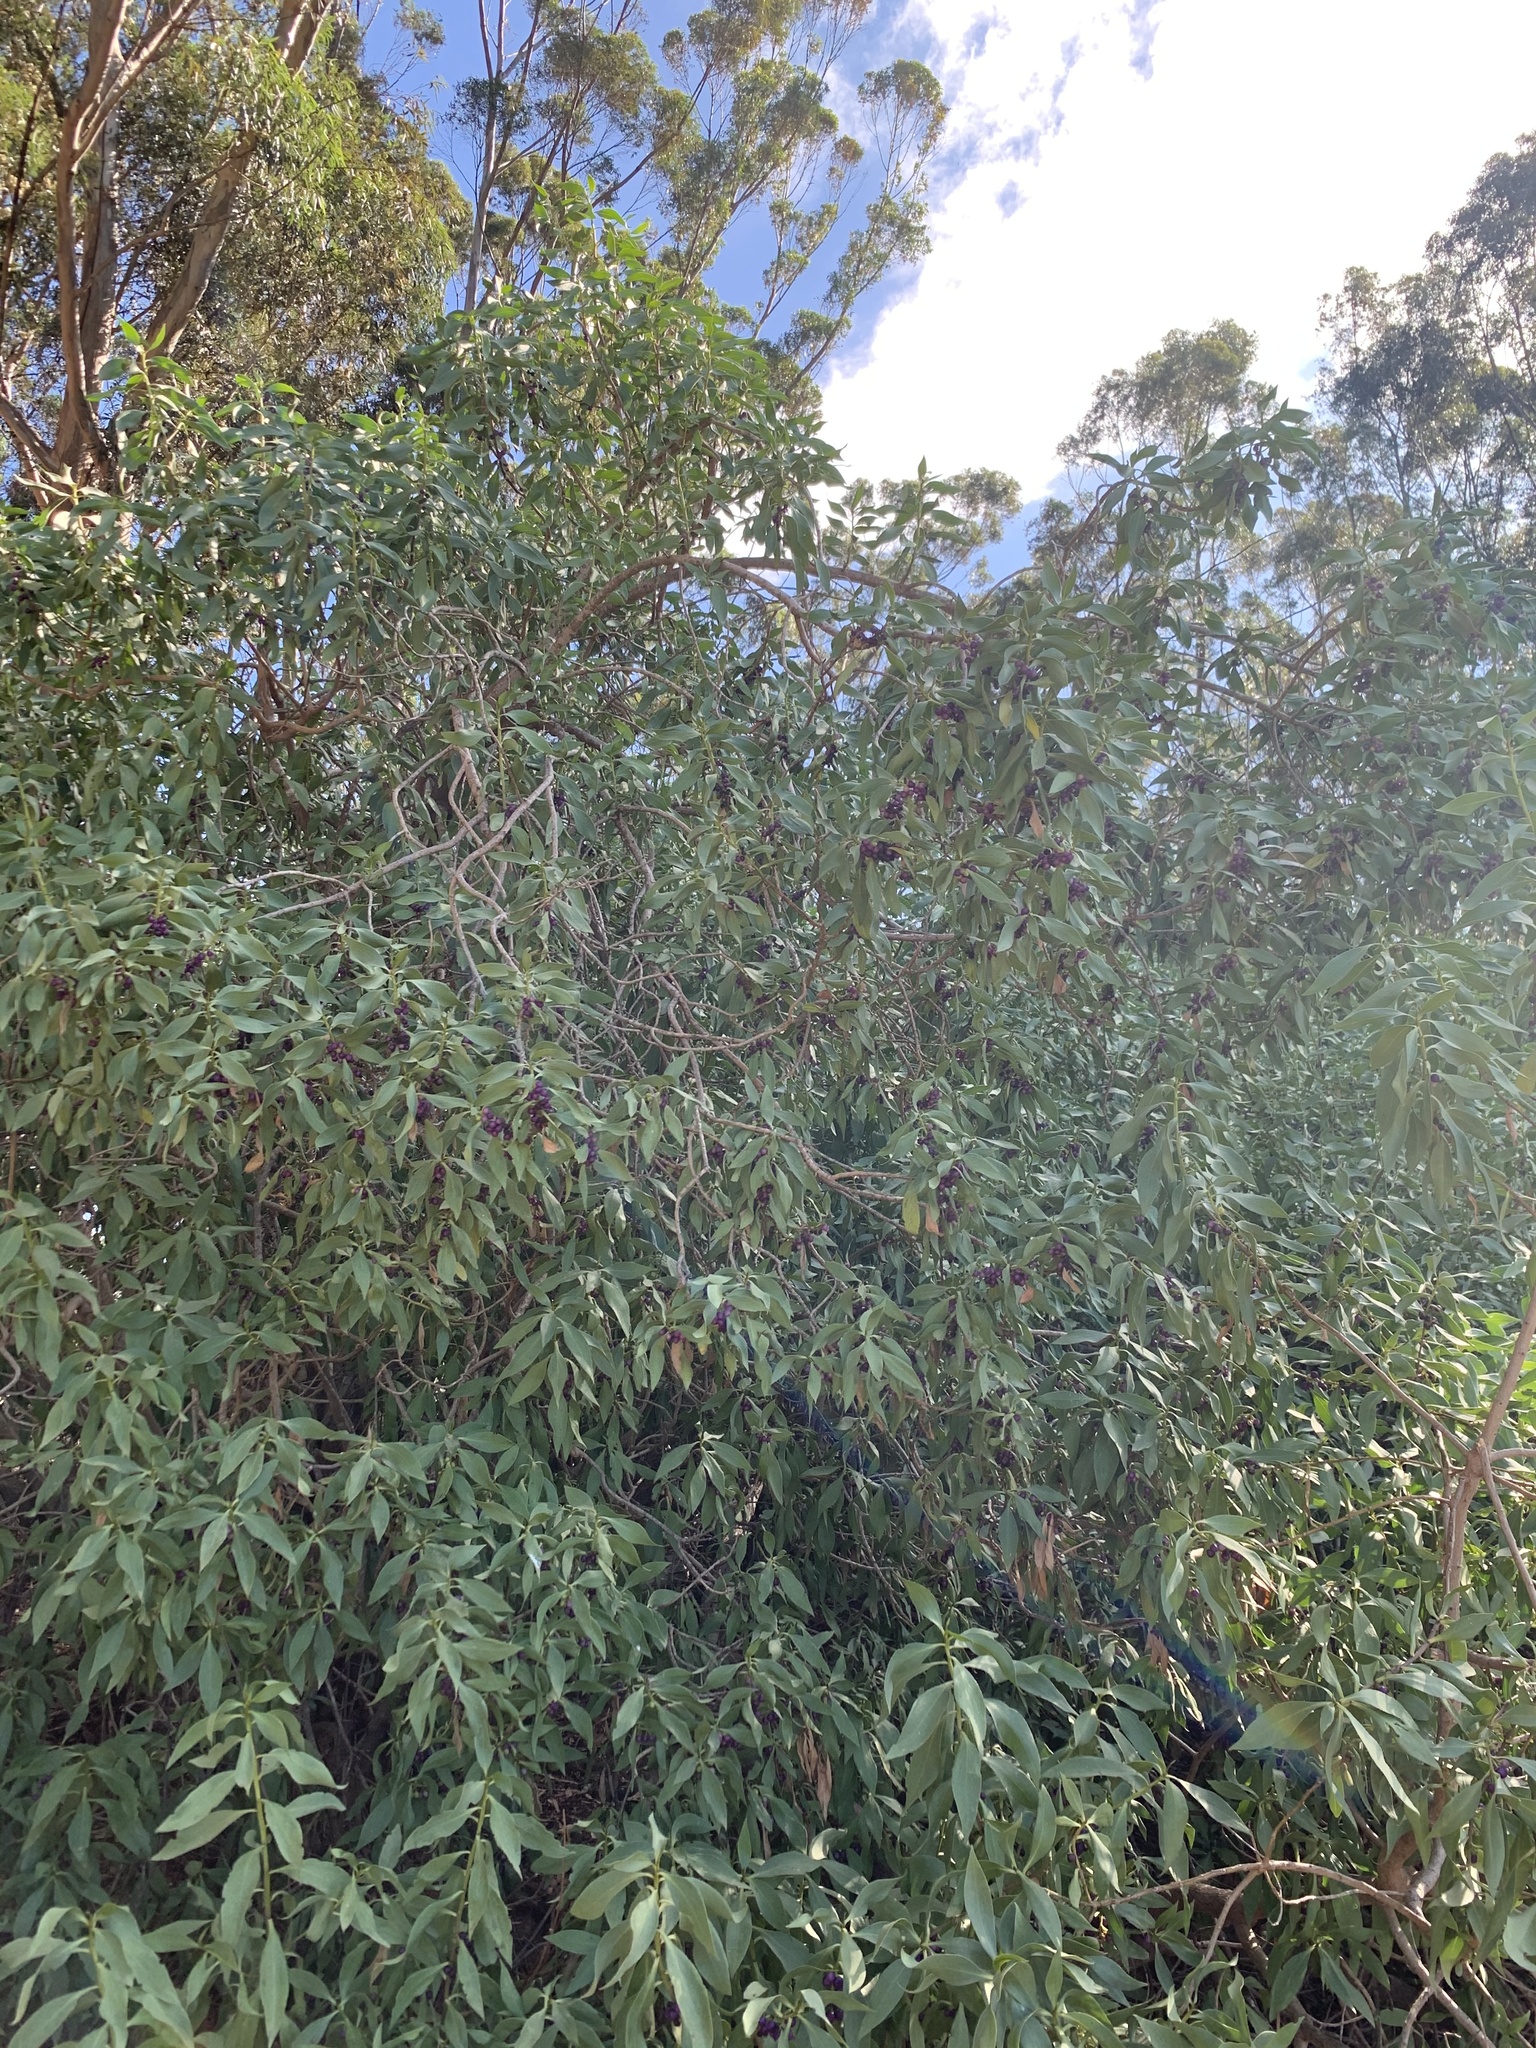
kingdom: Plantae
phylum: Tracheophyta
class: Magnoliopsida
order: Lamiales
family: Scrophulariaceae
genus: Myoporum
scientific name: Myoporum insulare
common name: Common boobialla
